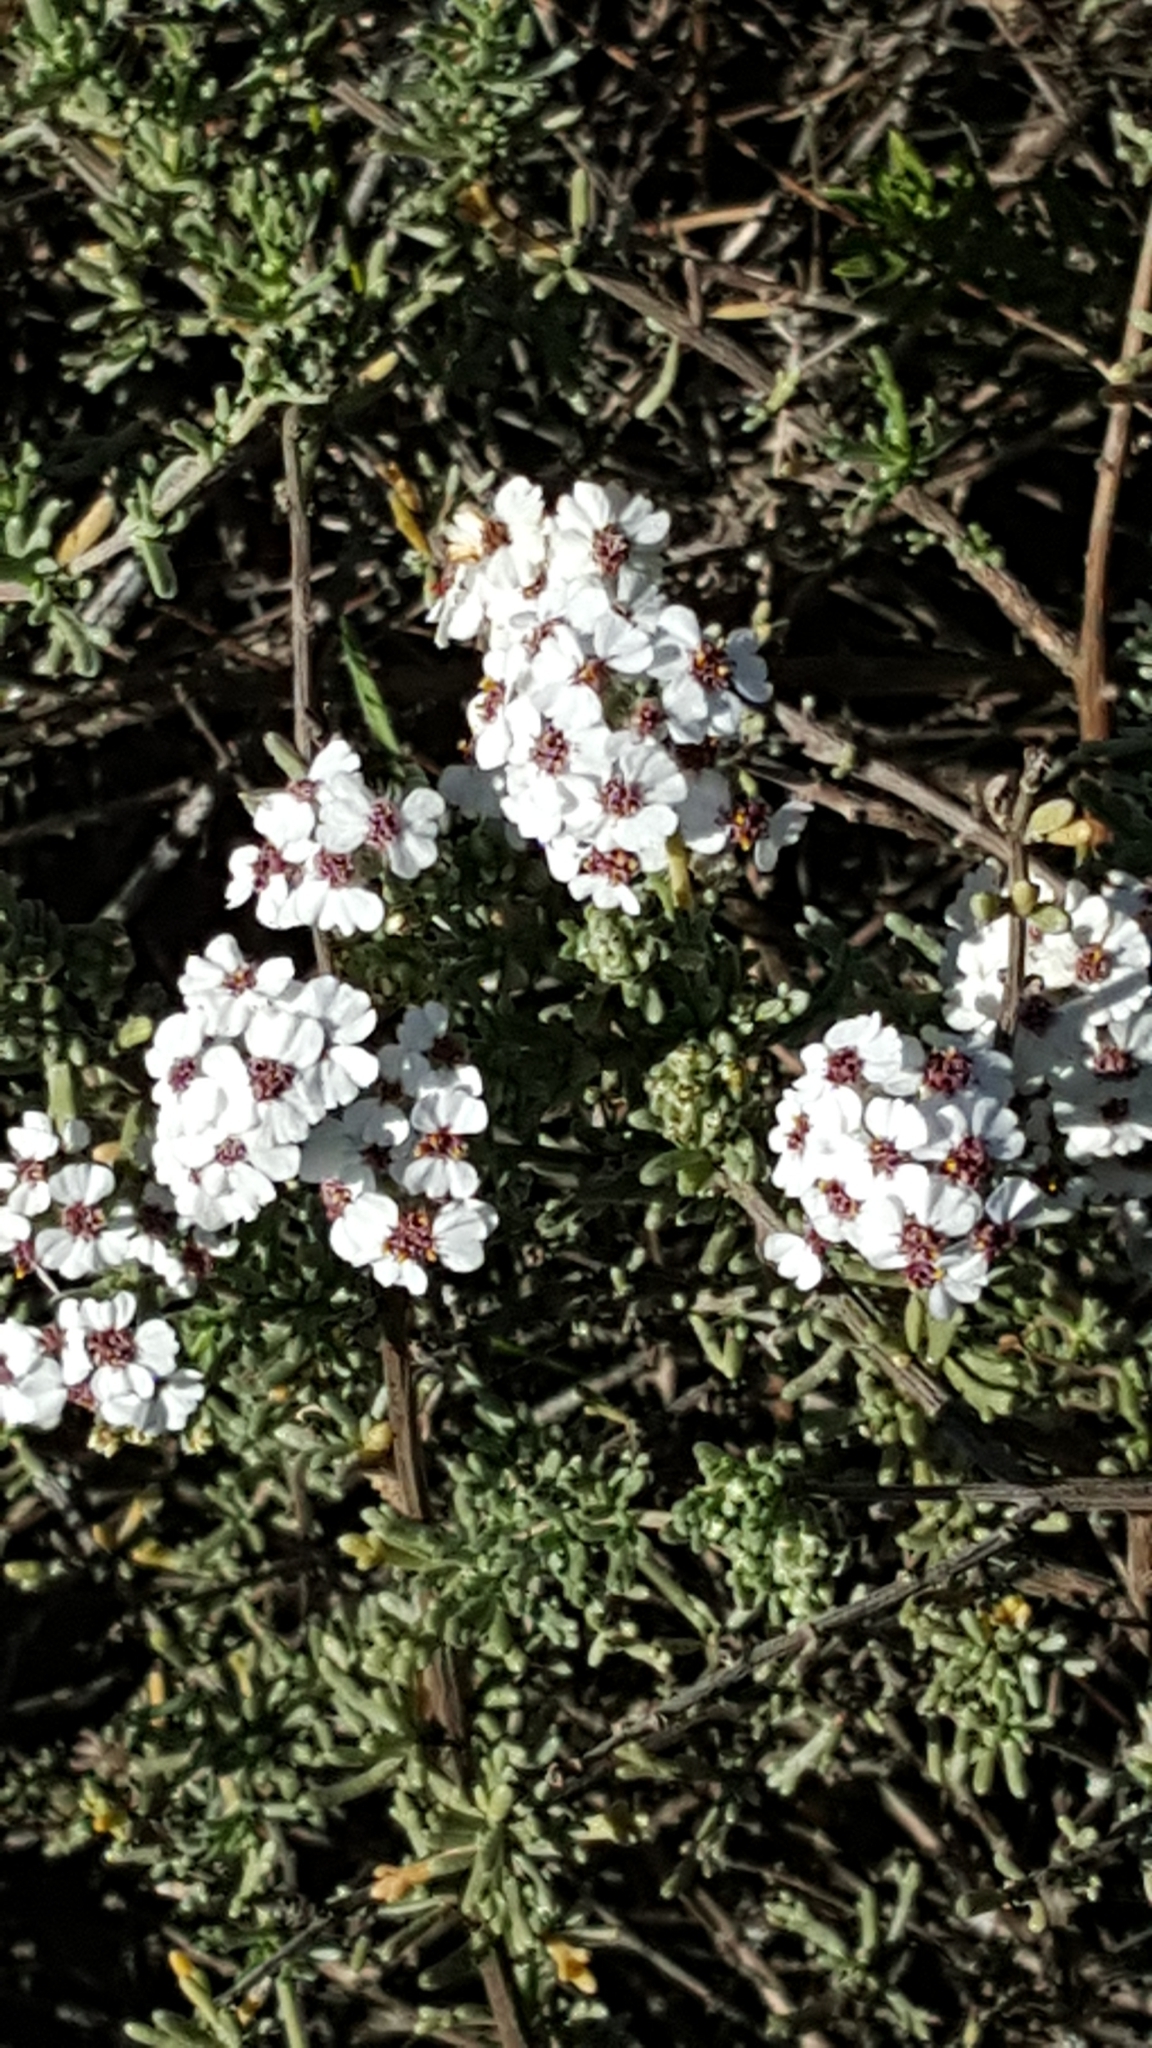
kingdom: Plantae
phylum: Tracheophyta
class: Magnoliopsida
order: Asterales
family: Asteraceae
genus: Eriocephalus
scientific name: Eriocephalus africanus
